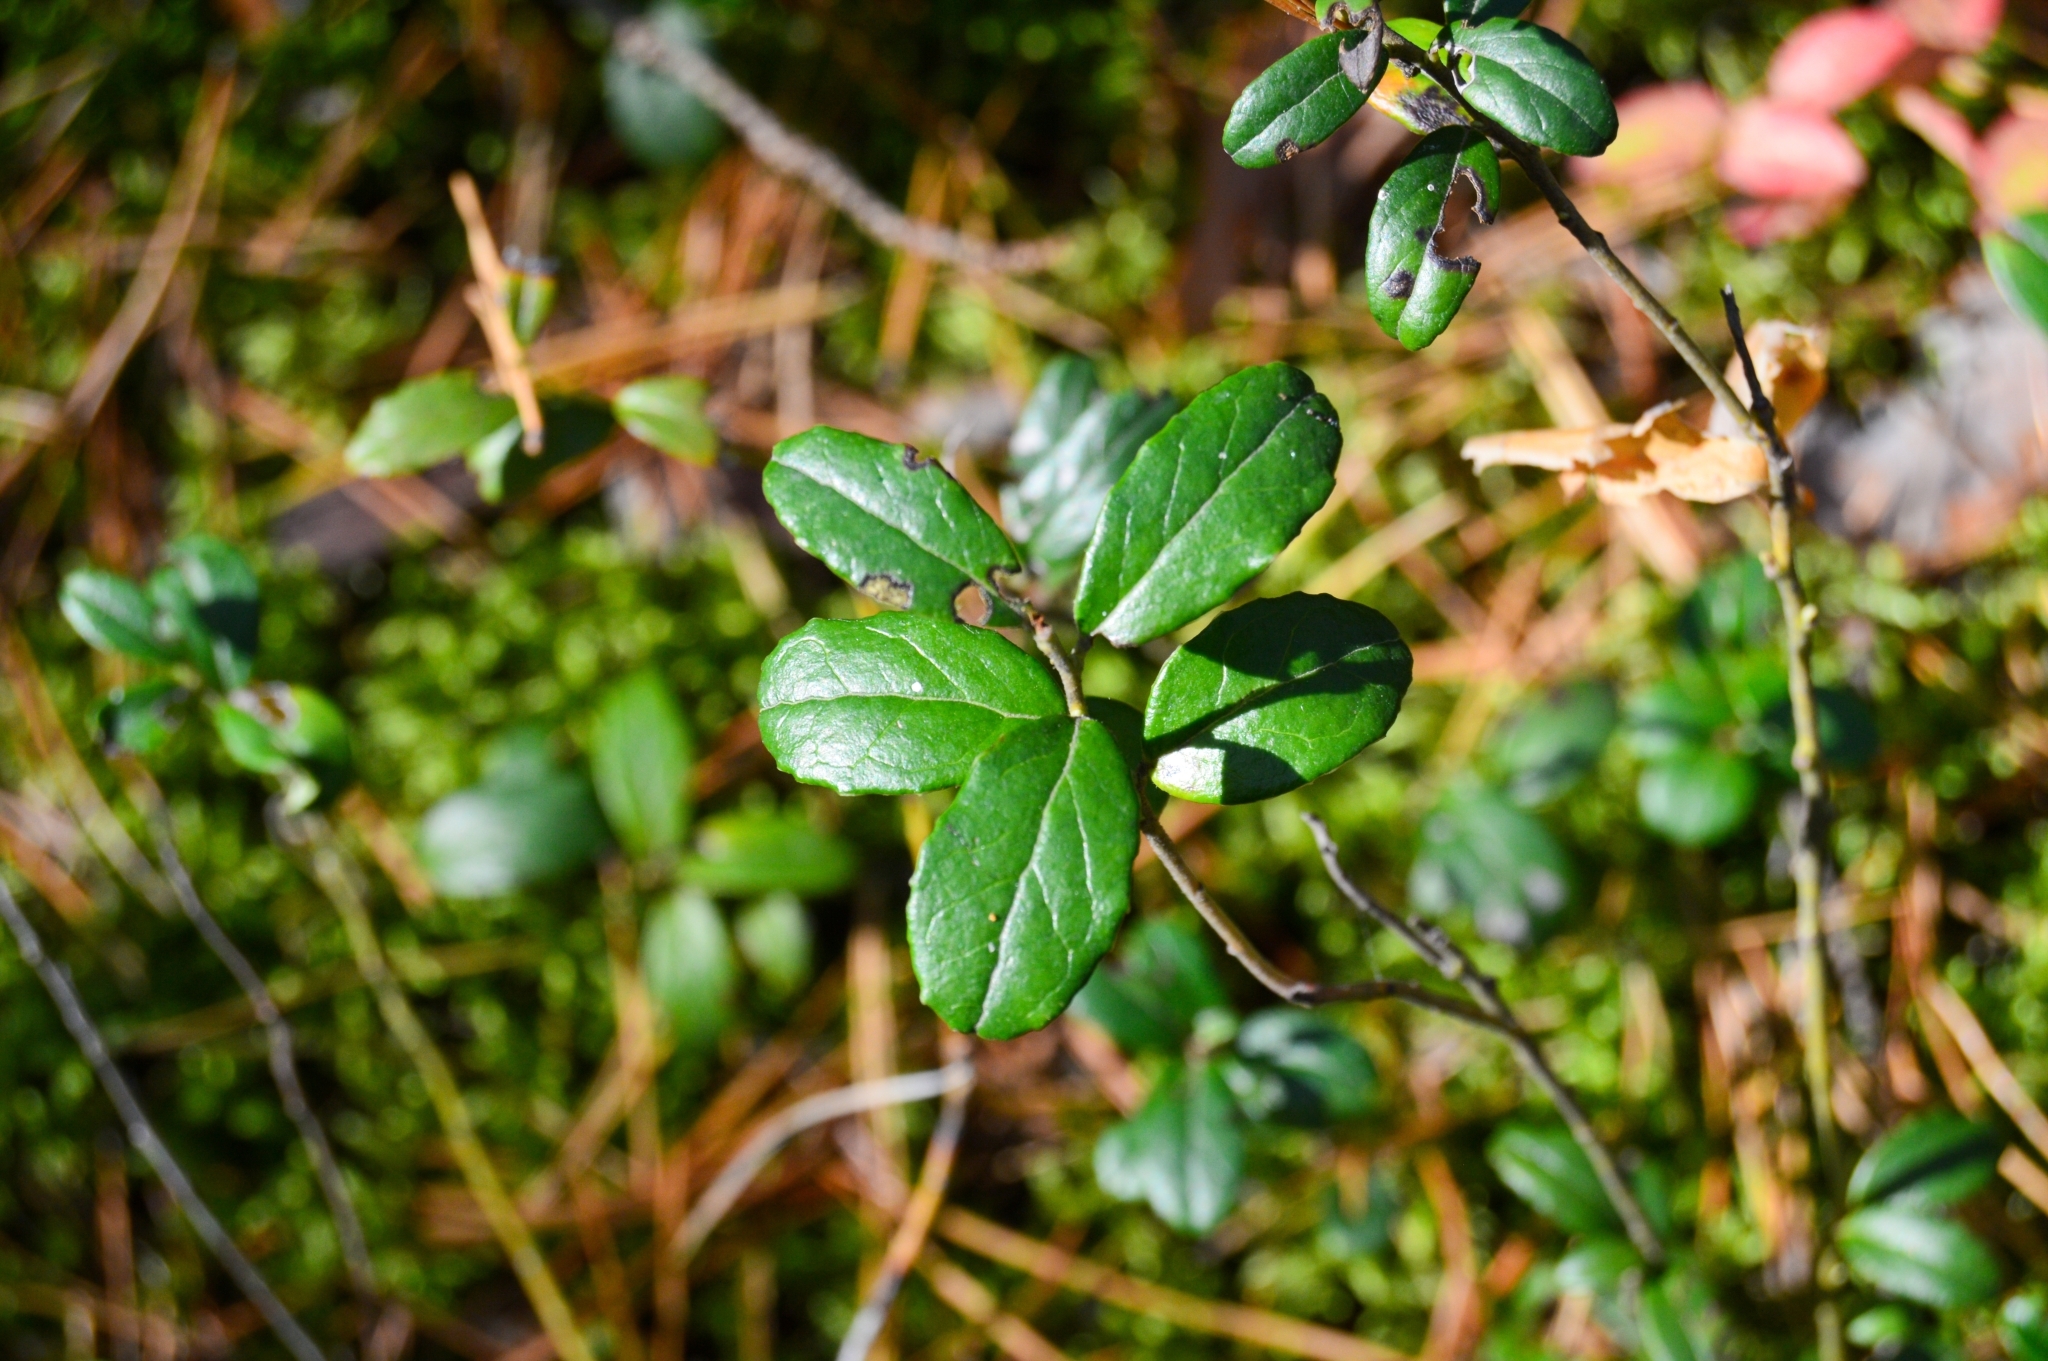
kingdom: Plantae
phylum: Tracheophyta
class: Magnoliopsida
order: Ericales
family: Ericaceae
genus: Vaccinium
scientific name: Vaccinium vitis-idaea
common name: Cowberry
